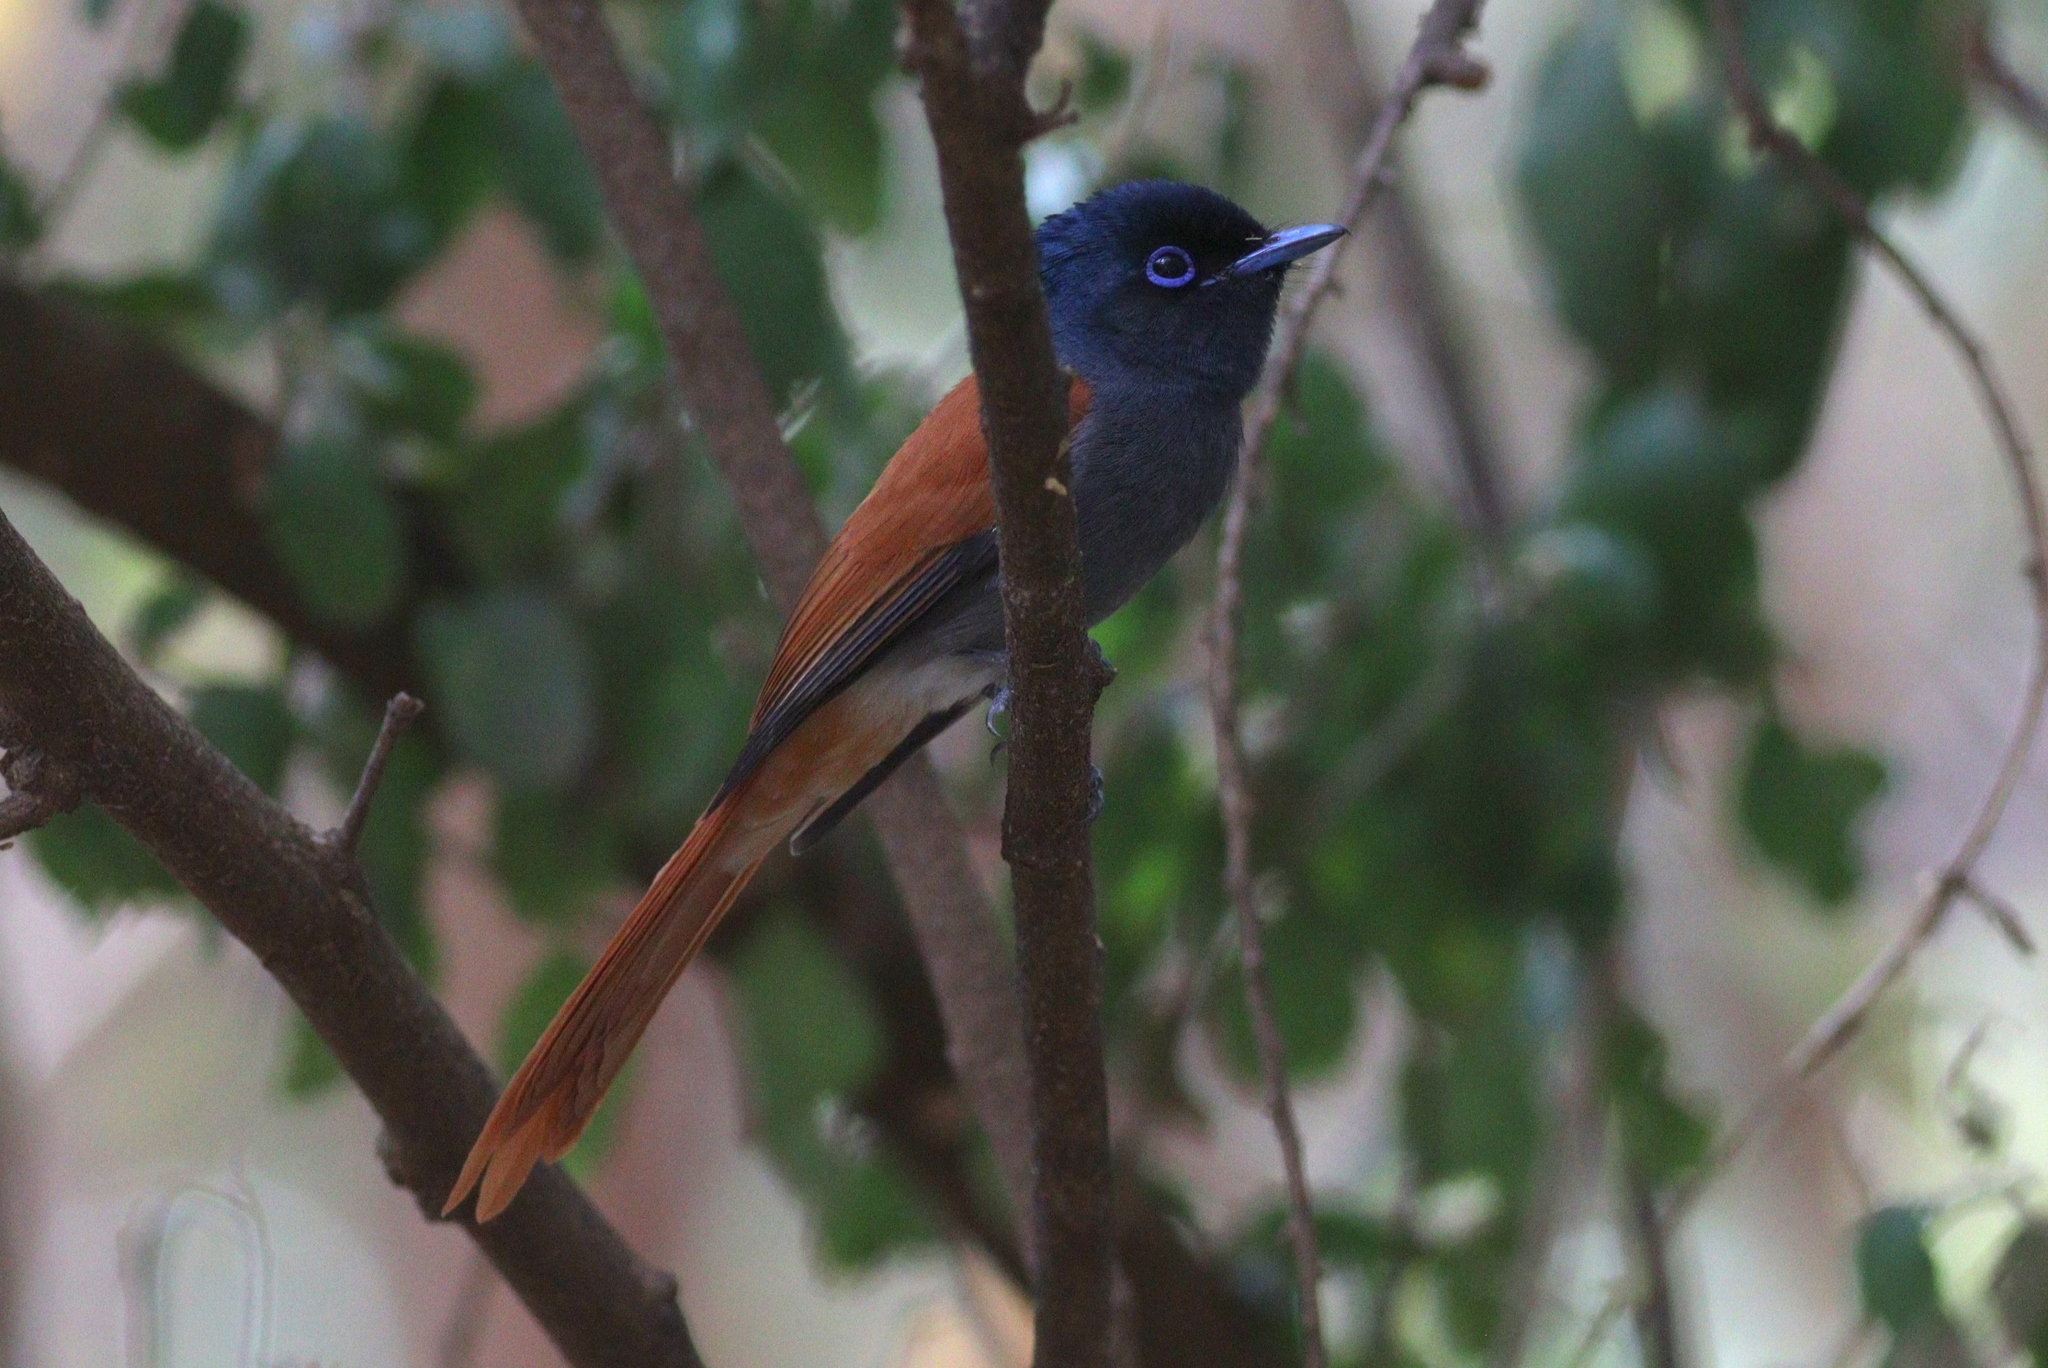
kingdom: Animalia
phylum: Chordata
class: Aves
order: Passeriformes
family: Monarchidae
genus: Terpsiphone
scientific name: Terpsiphone viridis
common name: African paradise flycatcher
